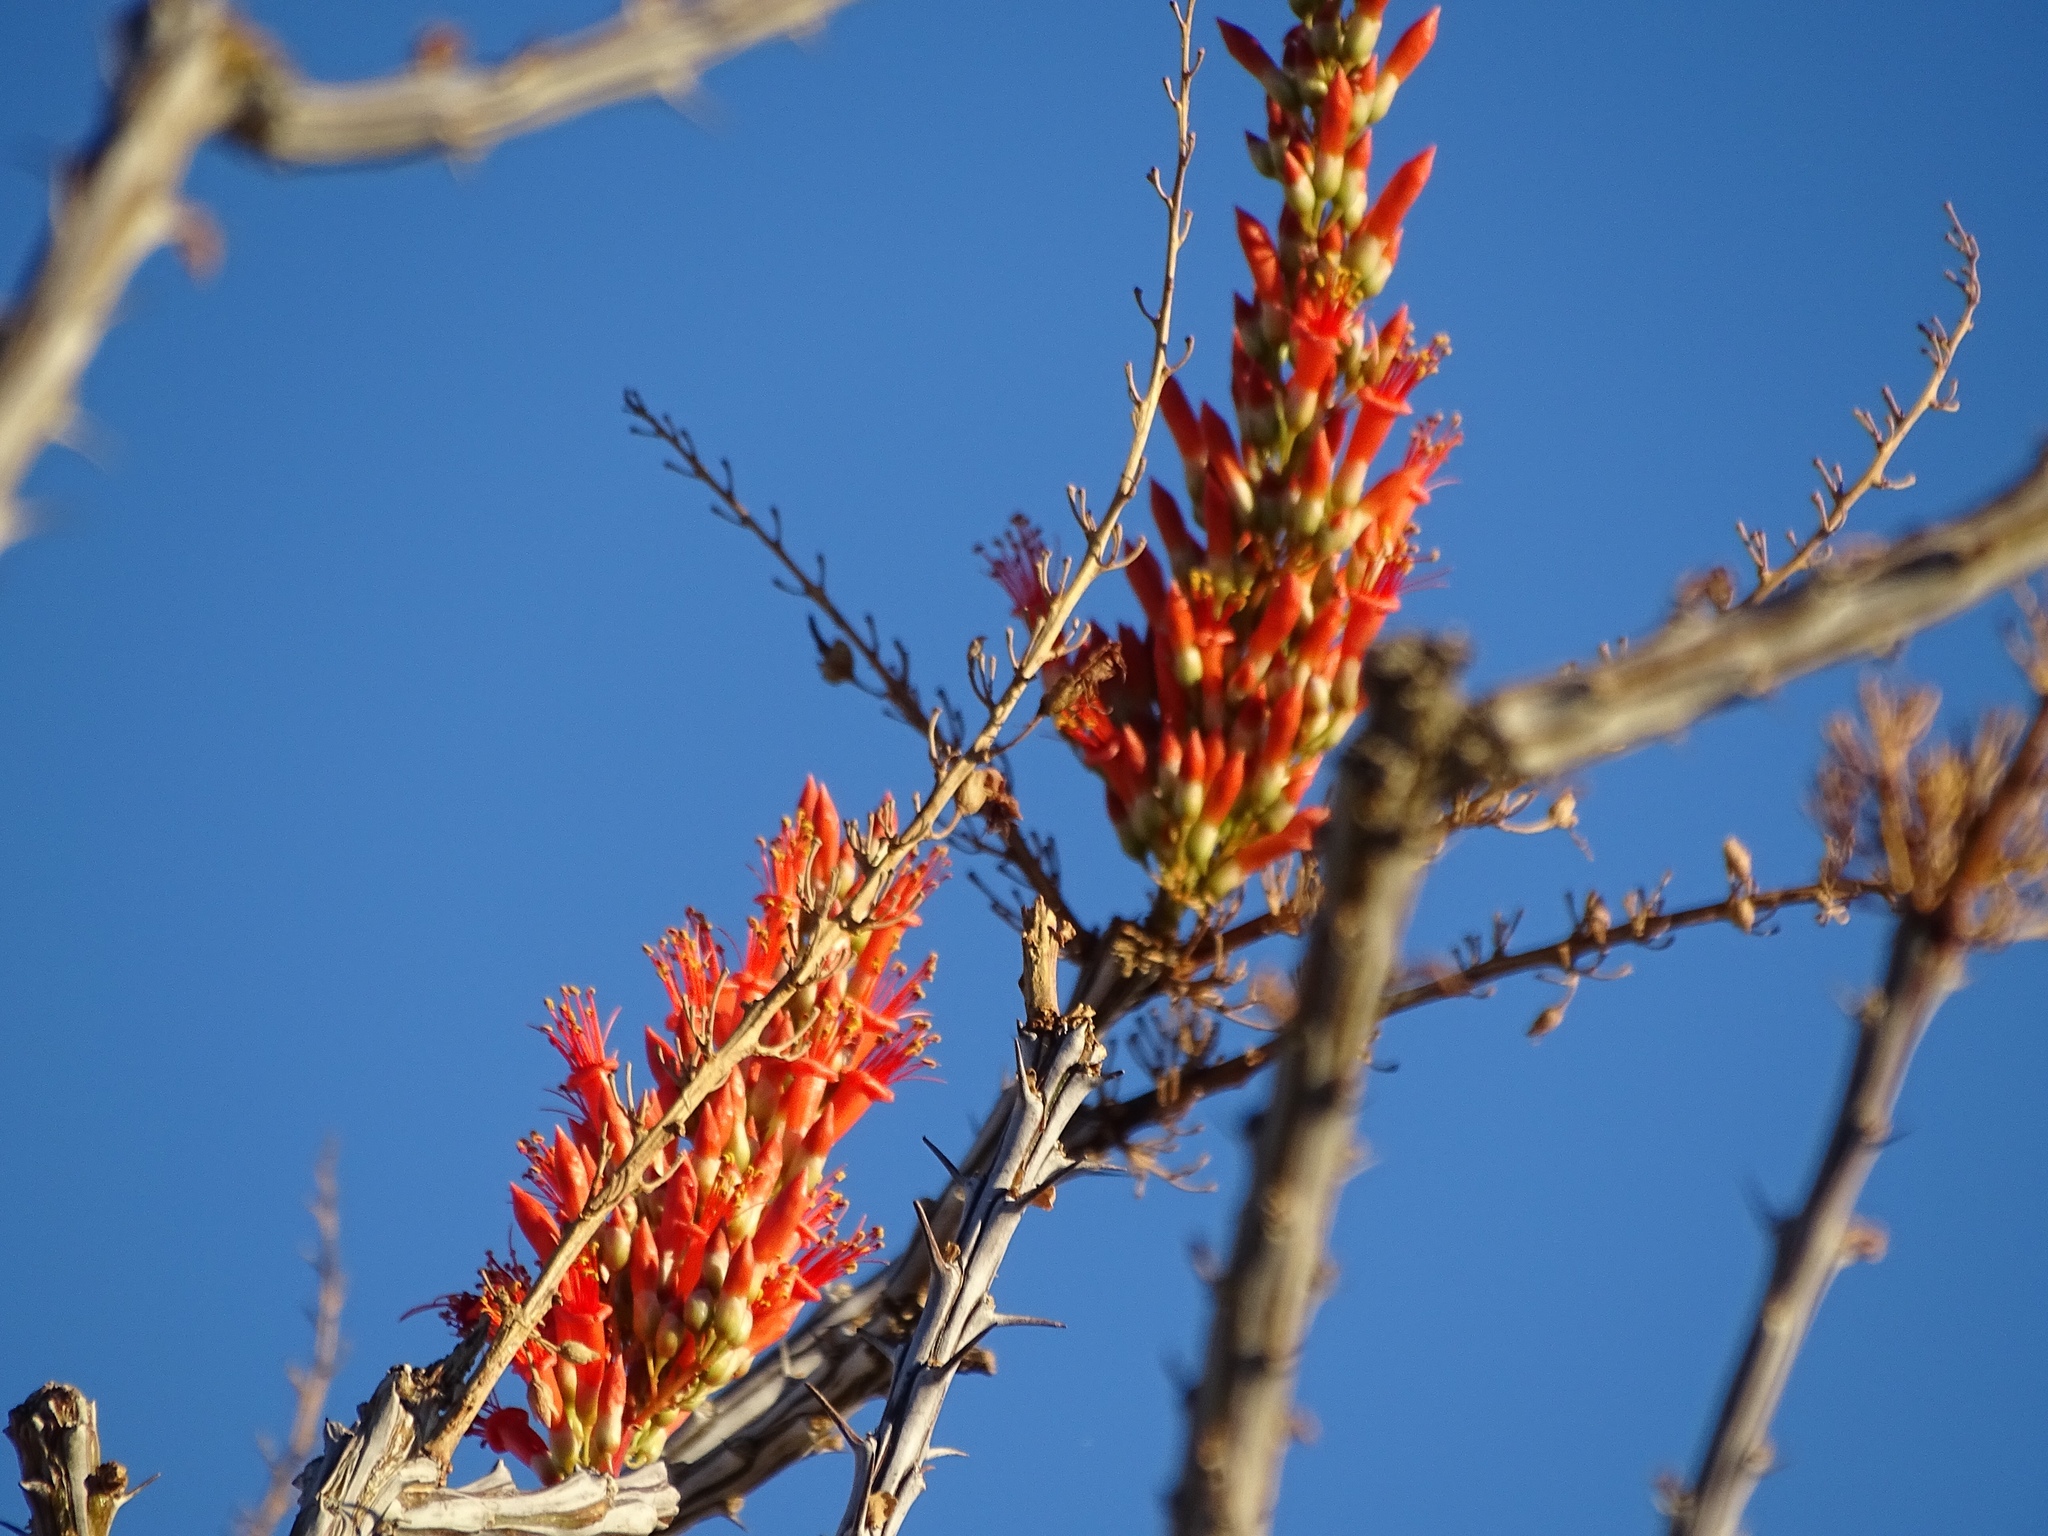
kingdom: Plantae
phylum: Tracheophyta
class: Magnoliopsida
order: Ericales
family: Fouquieriaceae
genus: Fouquieria
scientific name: Fouquieria splendens
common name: Vine-cactus
